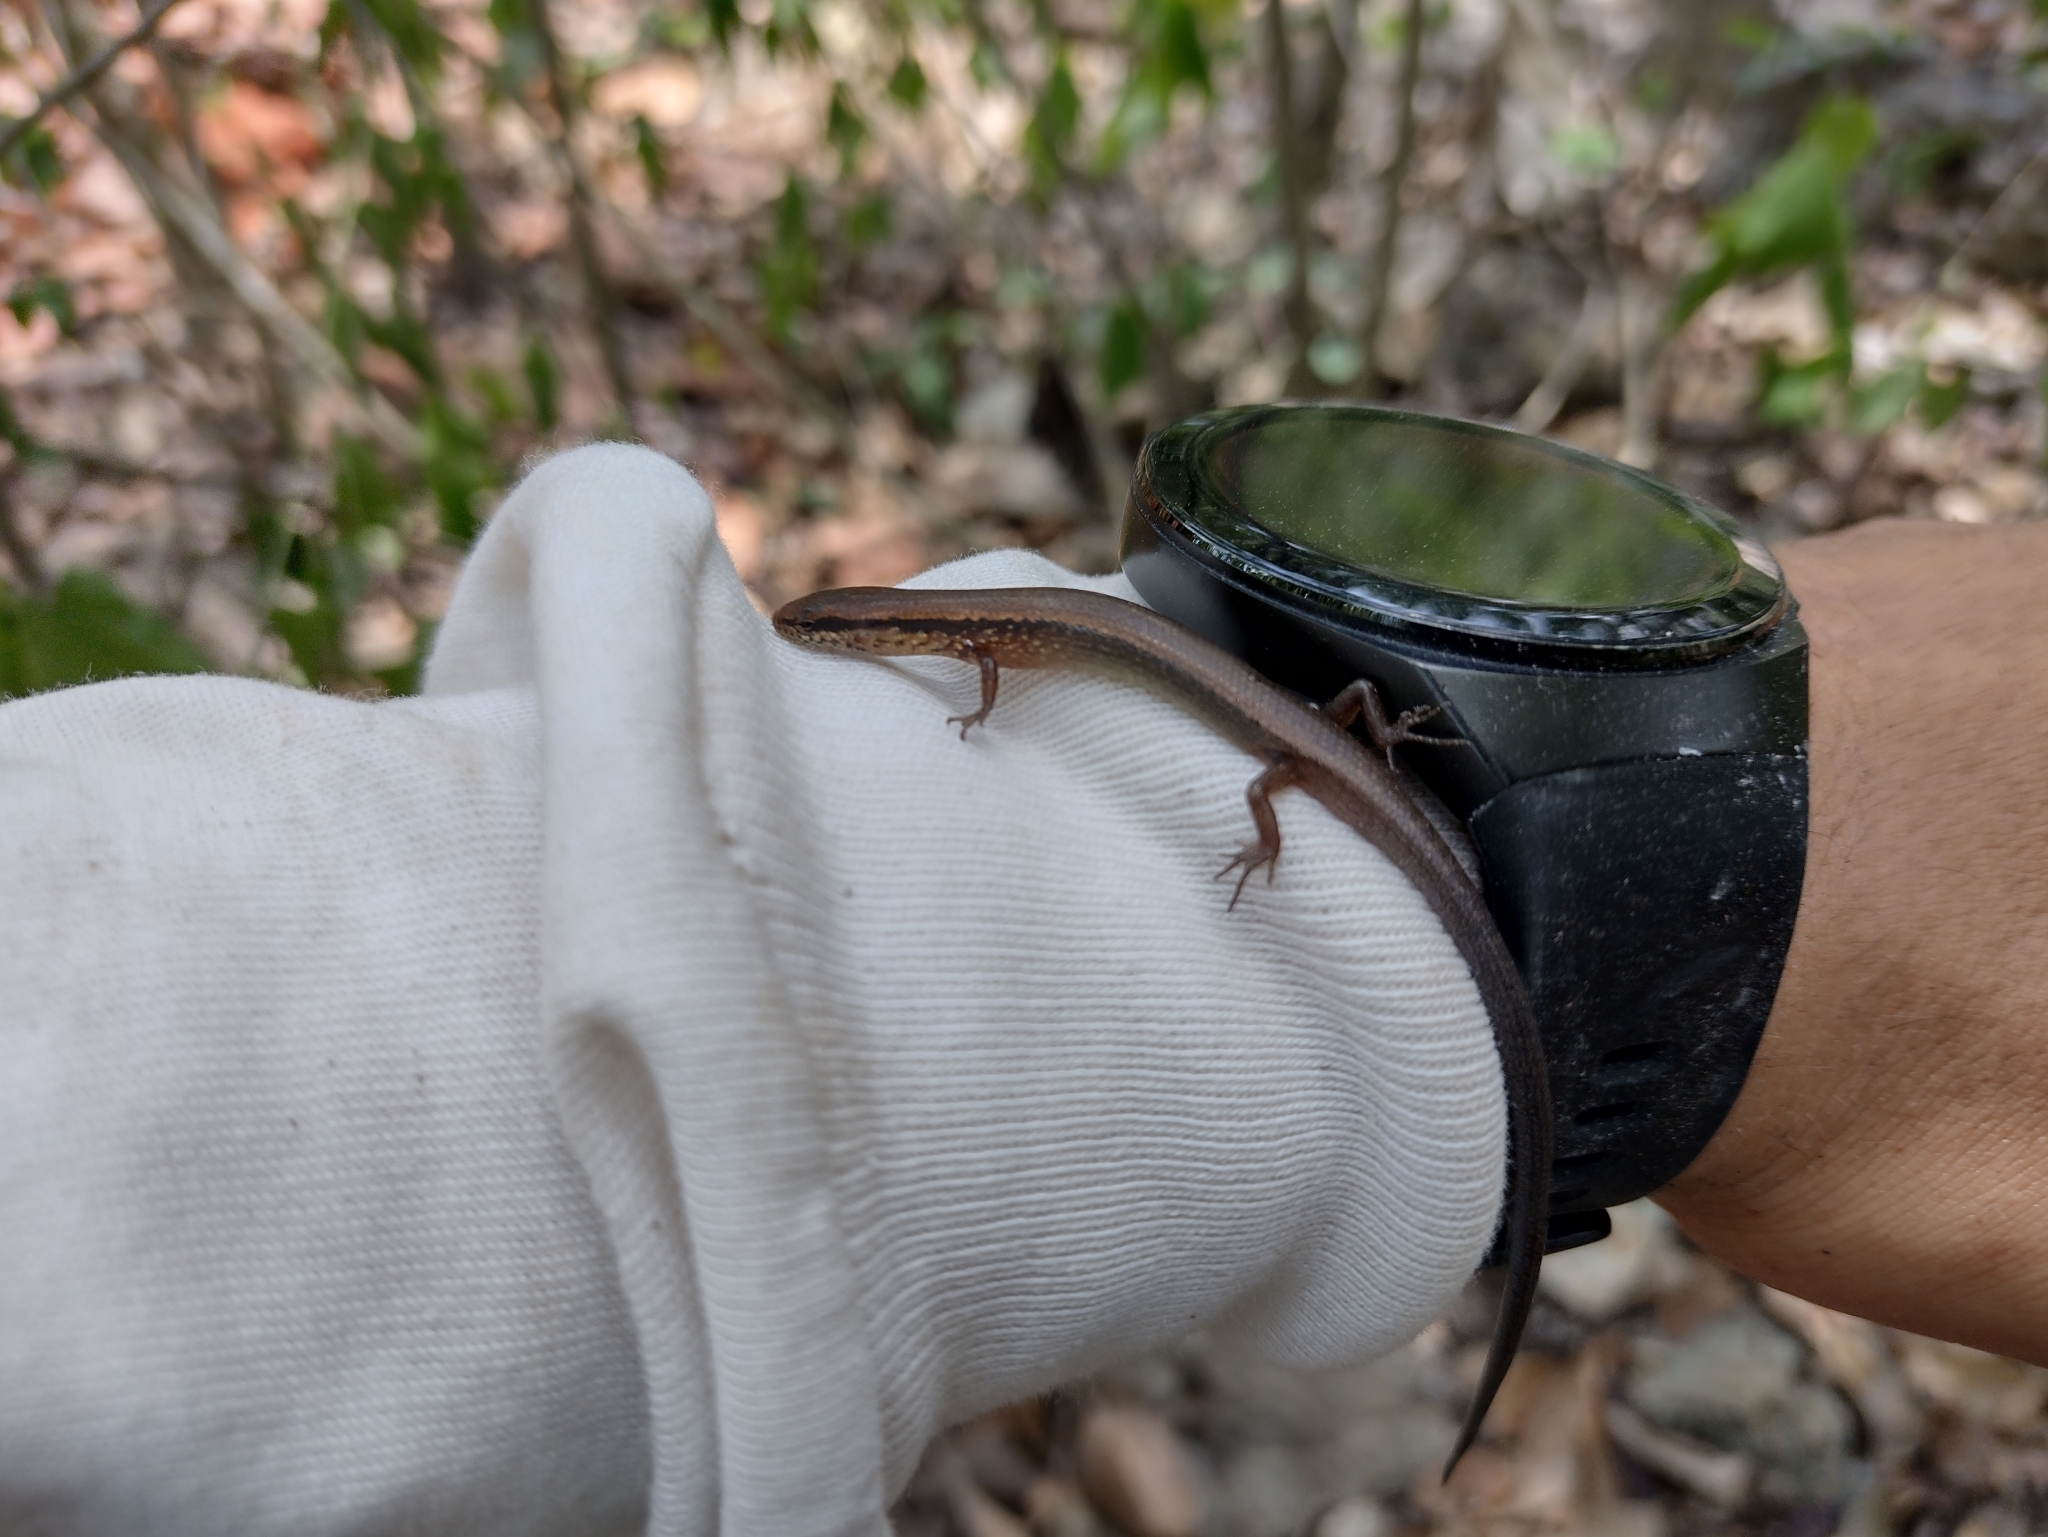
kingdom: Animalia
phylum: Chordata
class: Squamata
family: Scincidae
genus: Scincella
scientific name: Scincella cherriei
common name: Brown forest skink
